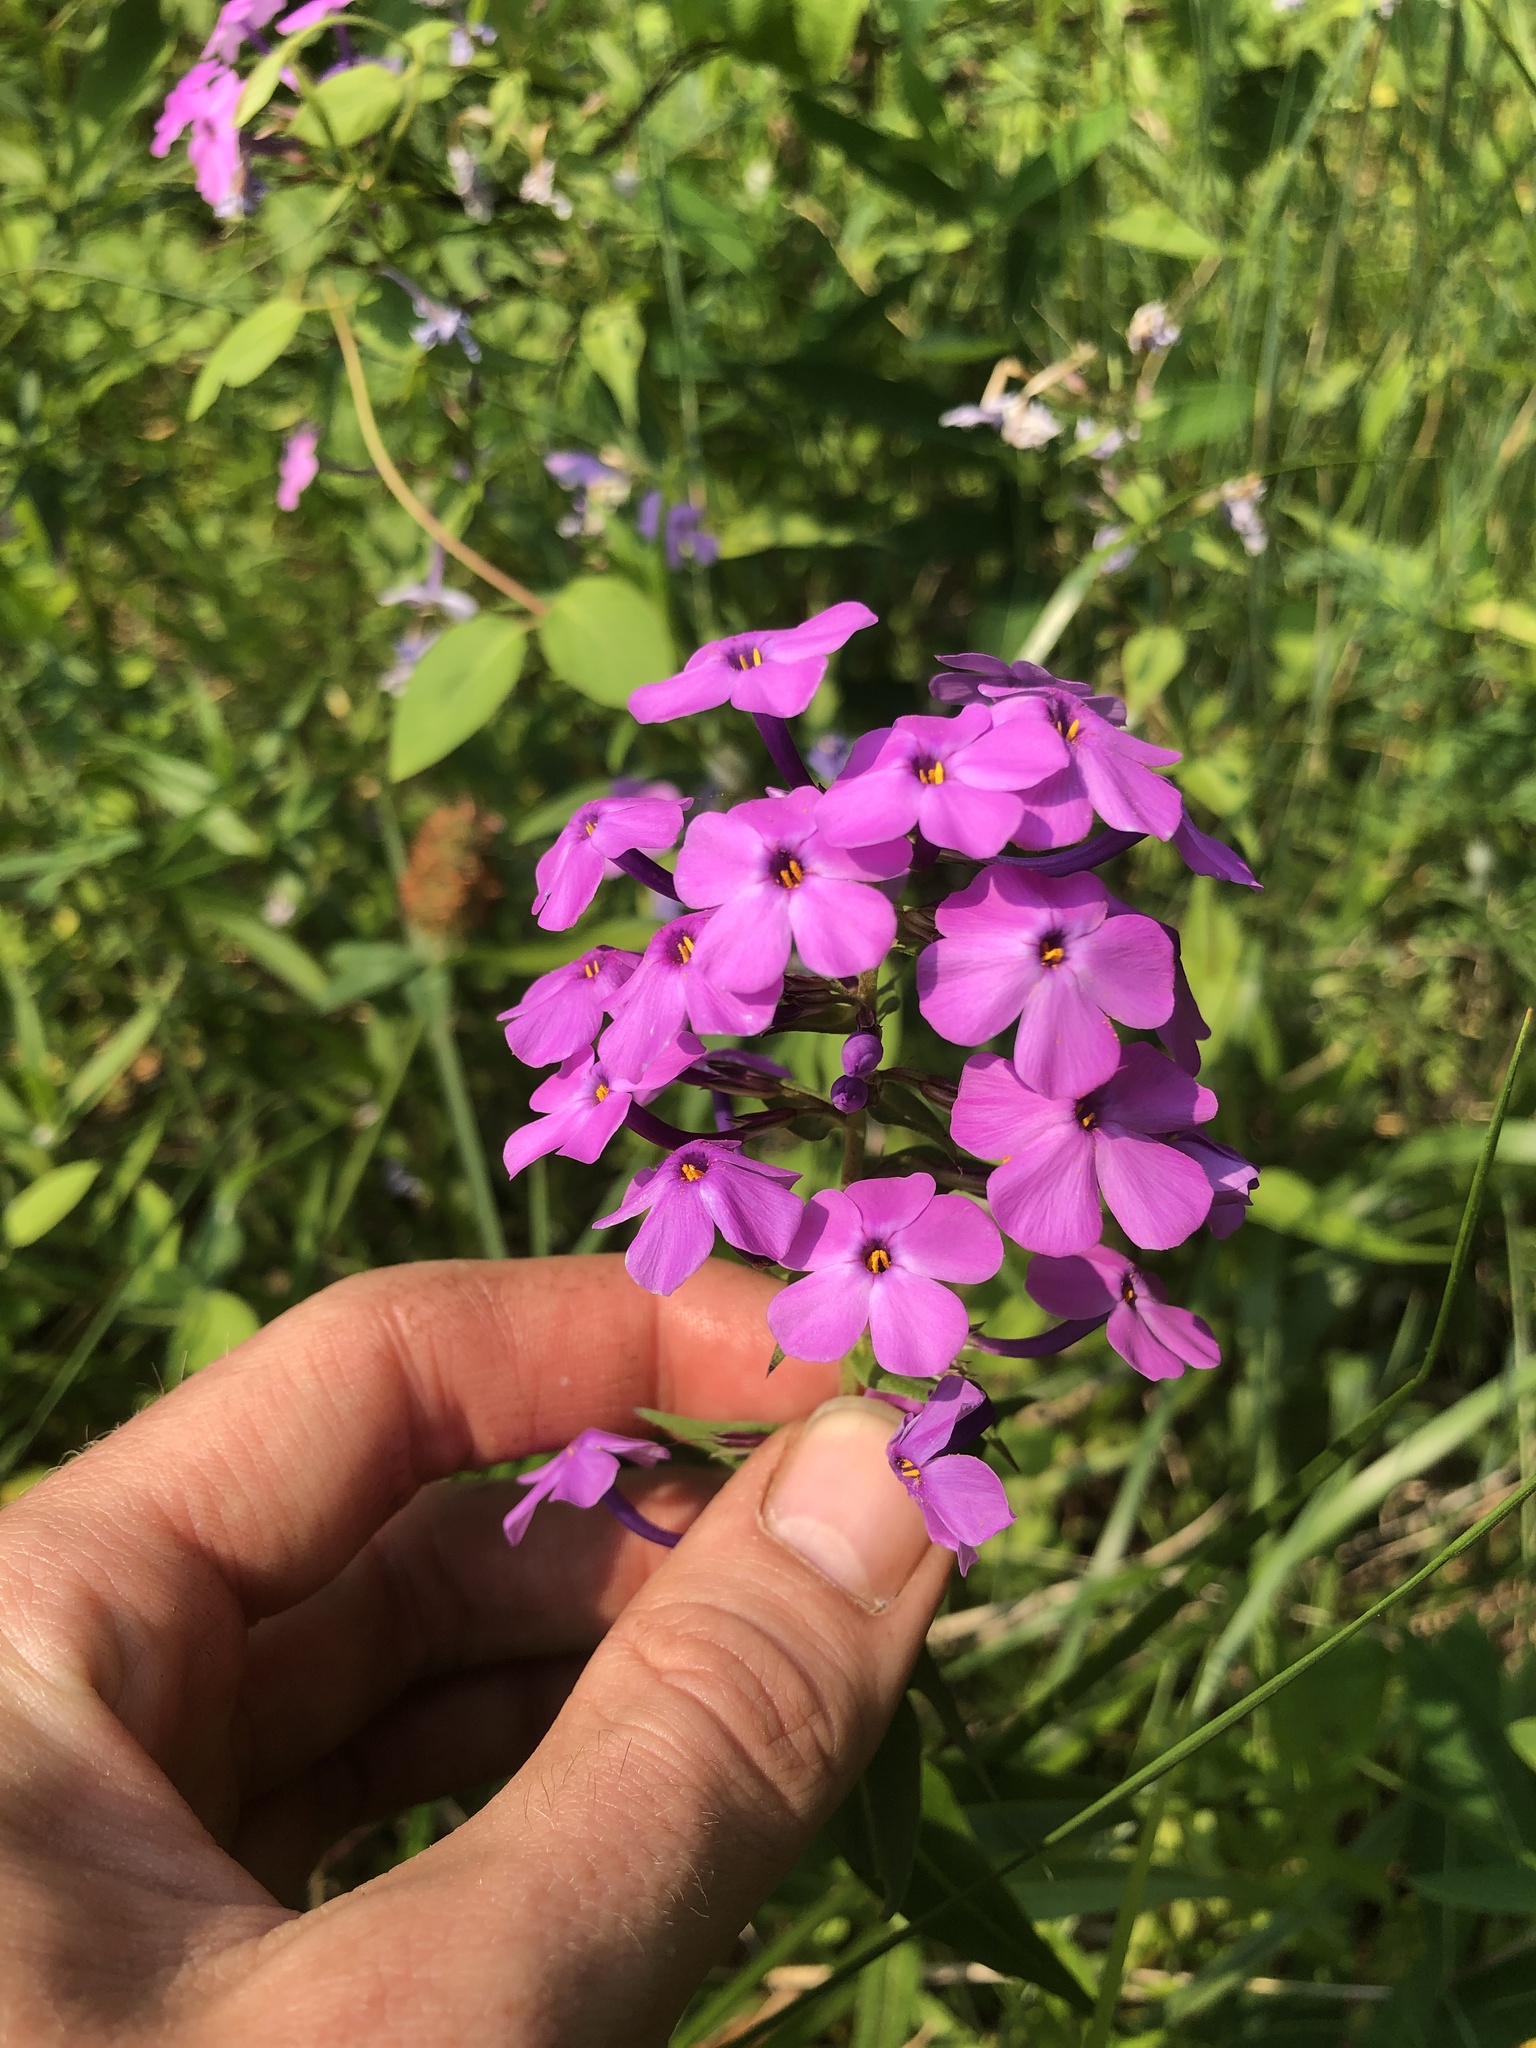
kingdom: Plantae
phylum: Tracheophyta
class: Magnoliopsida
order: Ericales
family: Polemoniaceae
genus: Phlox
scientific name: Phlox maculata
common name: Meadow phlox
